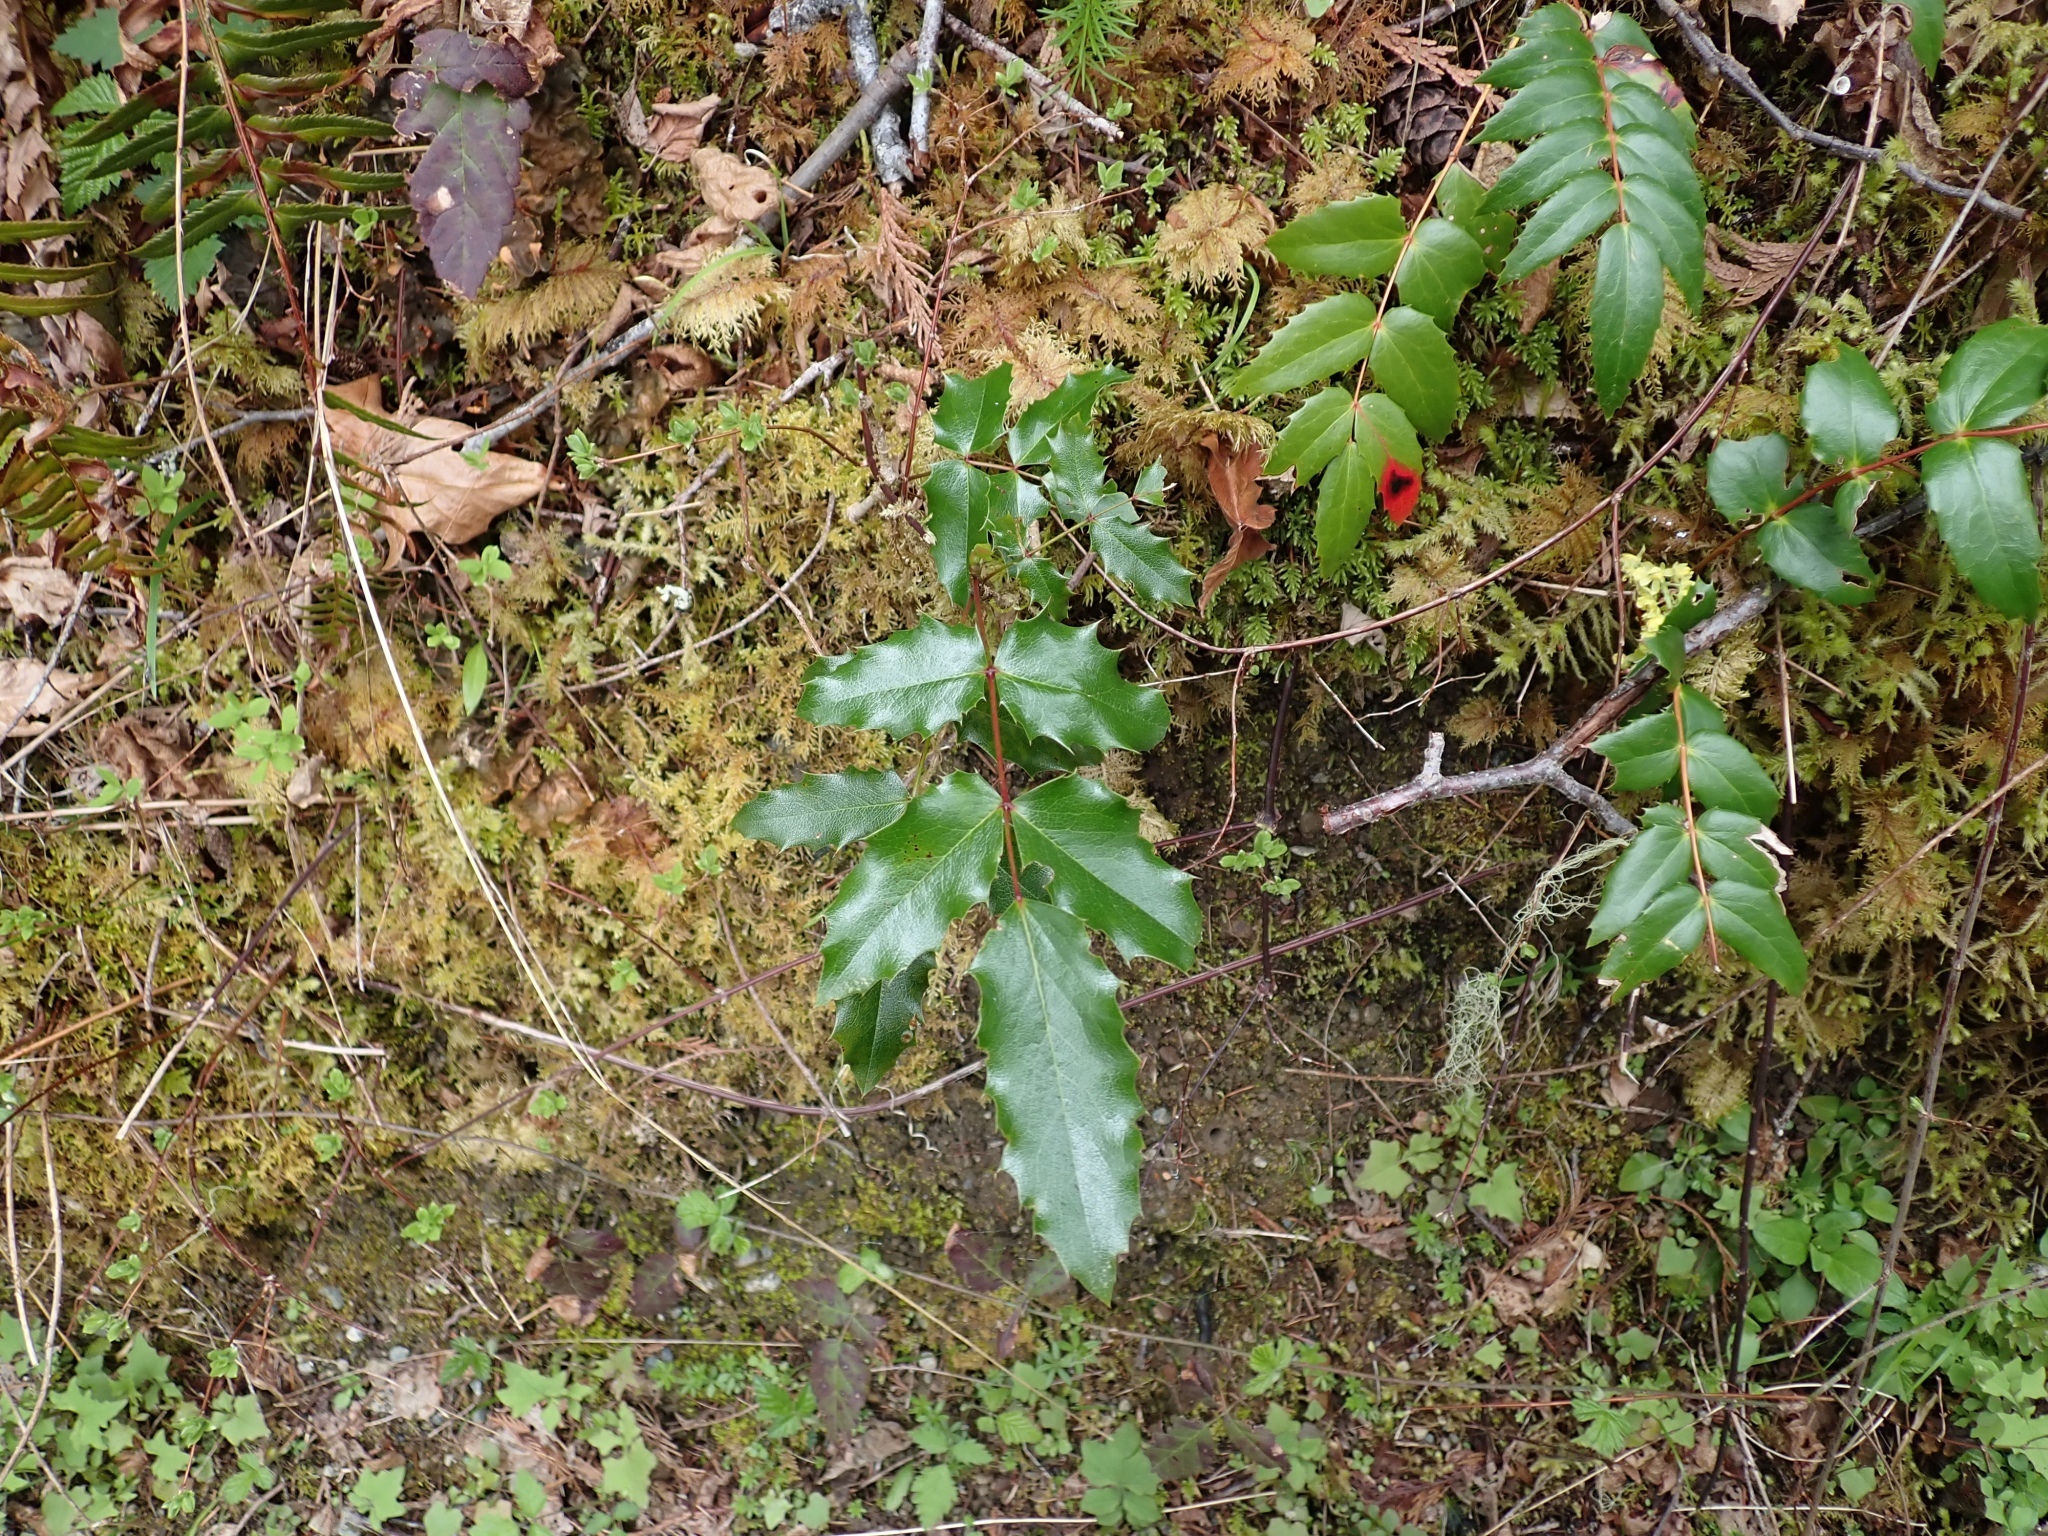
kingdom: Plantae
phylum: Tracheophyta
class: Magnoliopsida
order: Ranunculales
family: Berberidaceae
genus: Mahonia
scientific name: Mahonia aquifolium
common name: Oregon-grape
